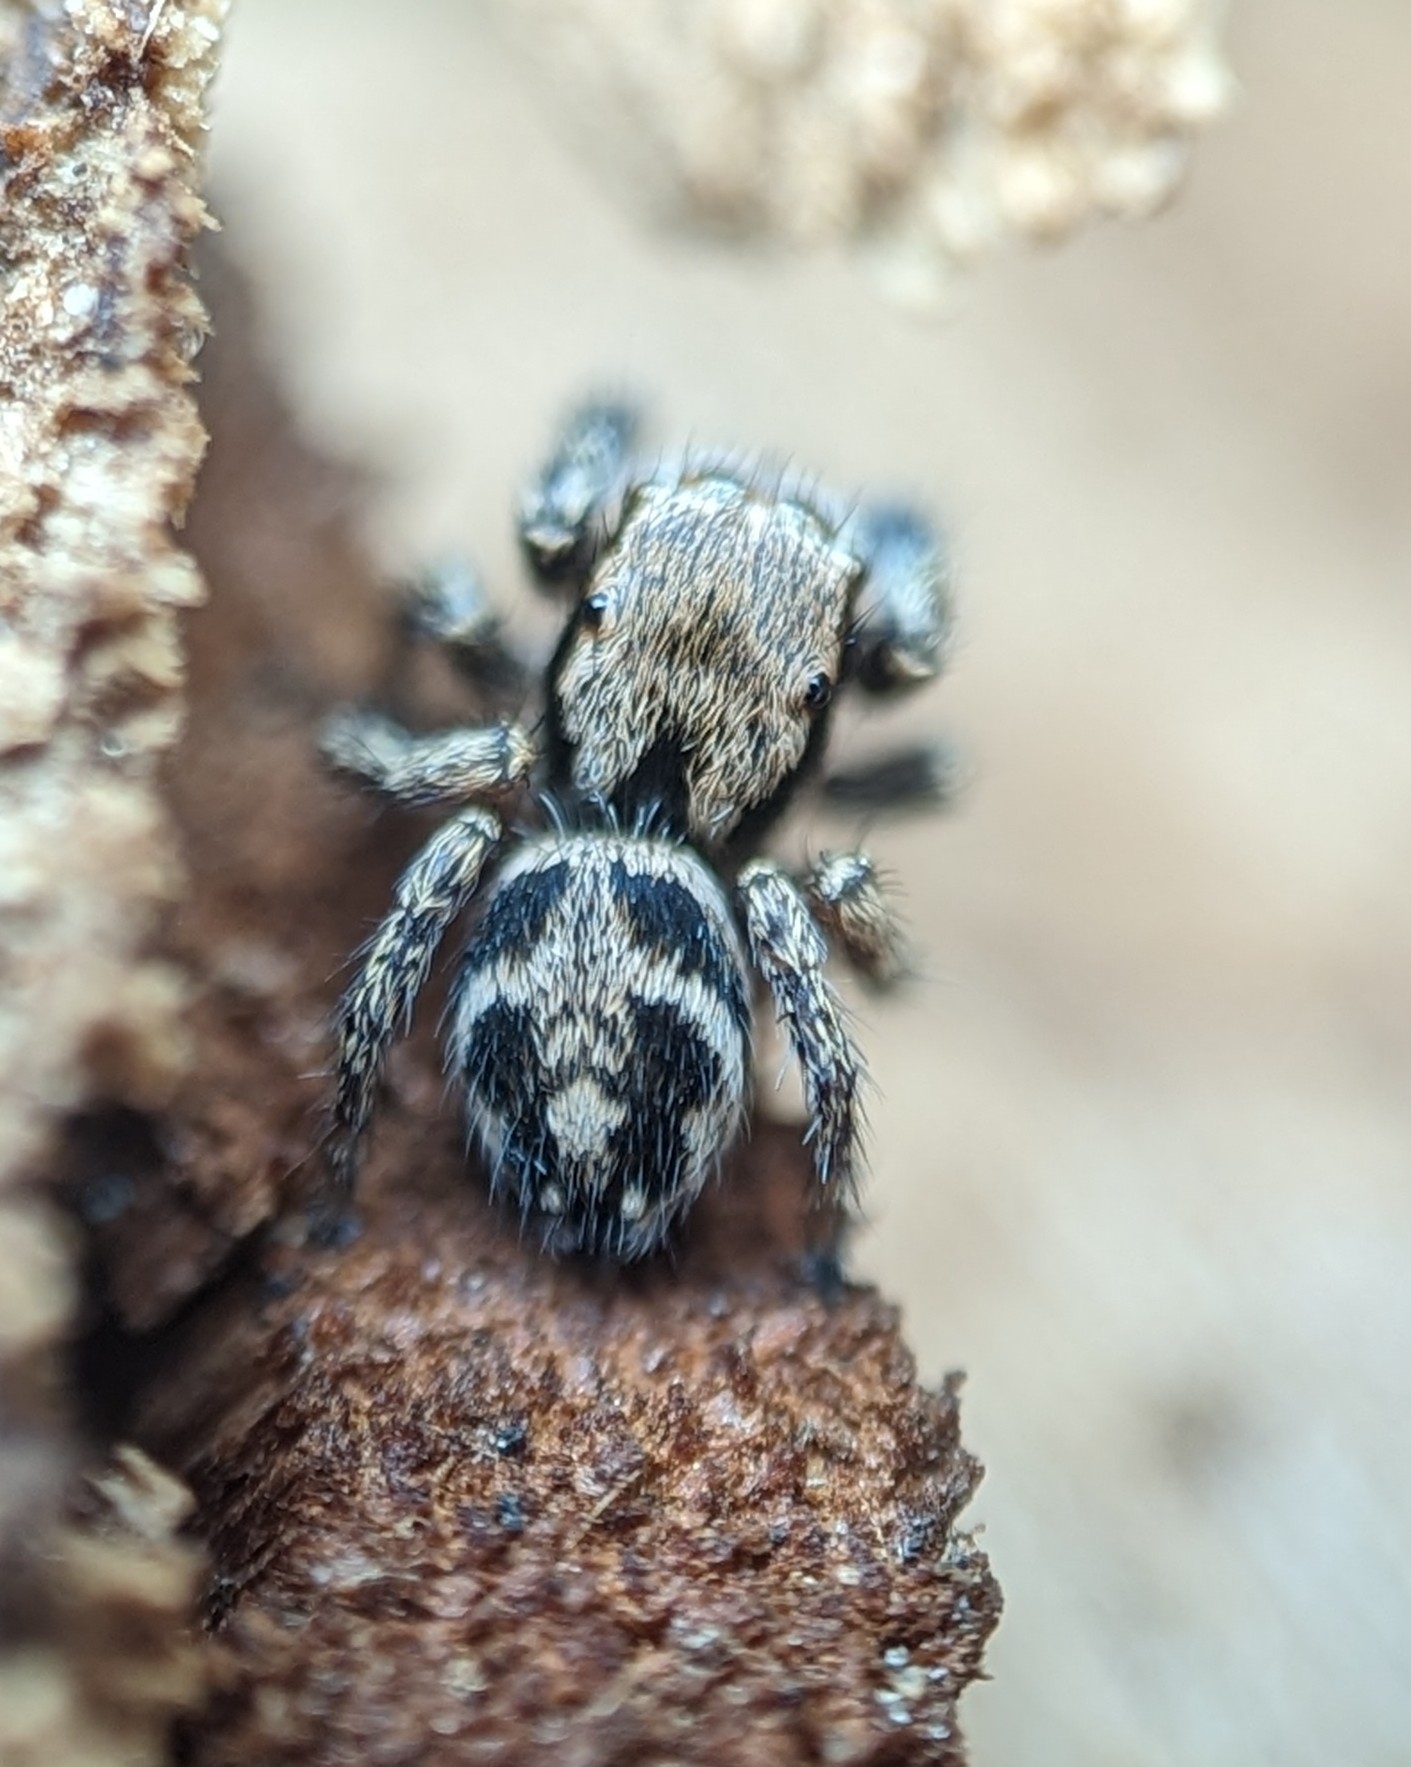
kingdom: Animalia
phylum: Arthropoda
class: Arachnida
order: Araneae
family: Salticidae
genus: Habronattus
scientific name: Habronattus borealis
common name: Boreal paradise spider
